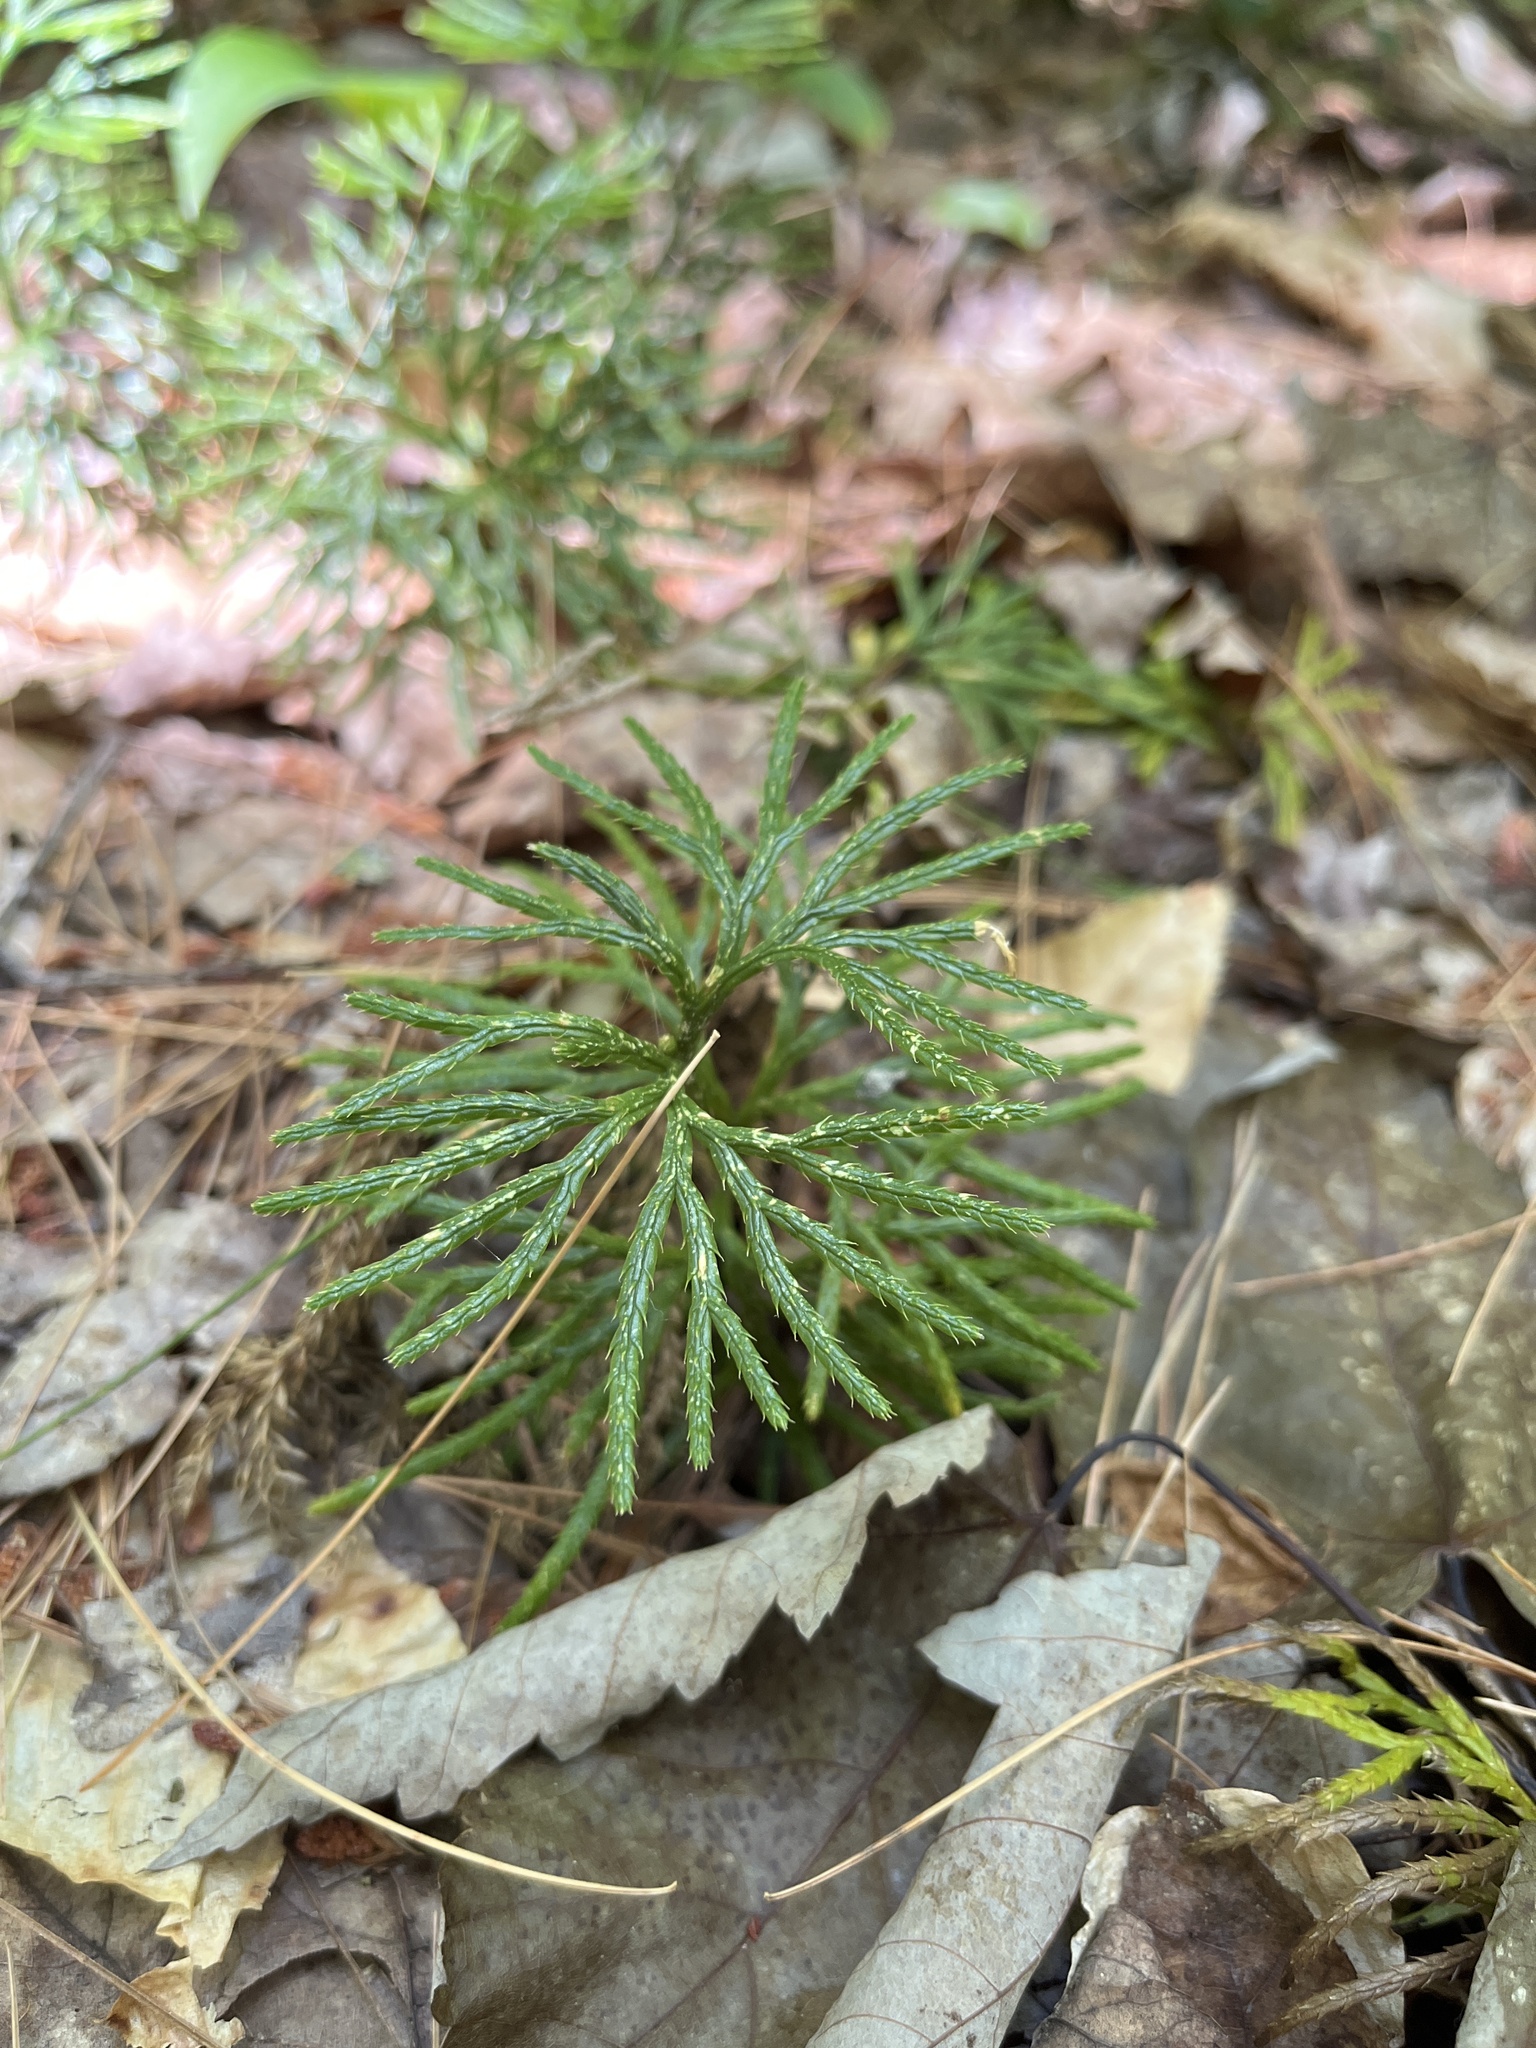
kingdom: Plantae
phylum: Tracheophyta
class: Lycopodiopsida
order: Lycopodiales
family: Lycopodiaceae
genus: Diphasiastrum
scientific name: Diphasiastrum digitatum
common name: Southern running-pine
